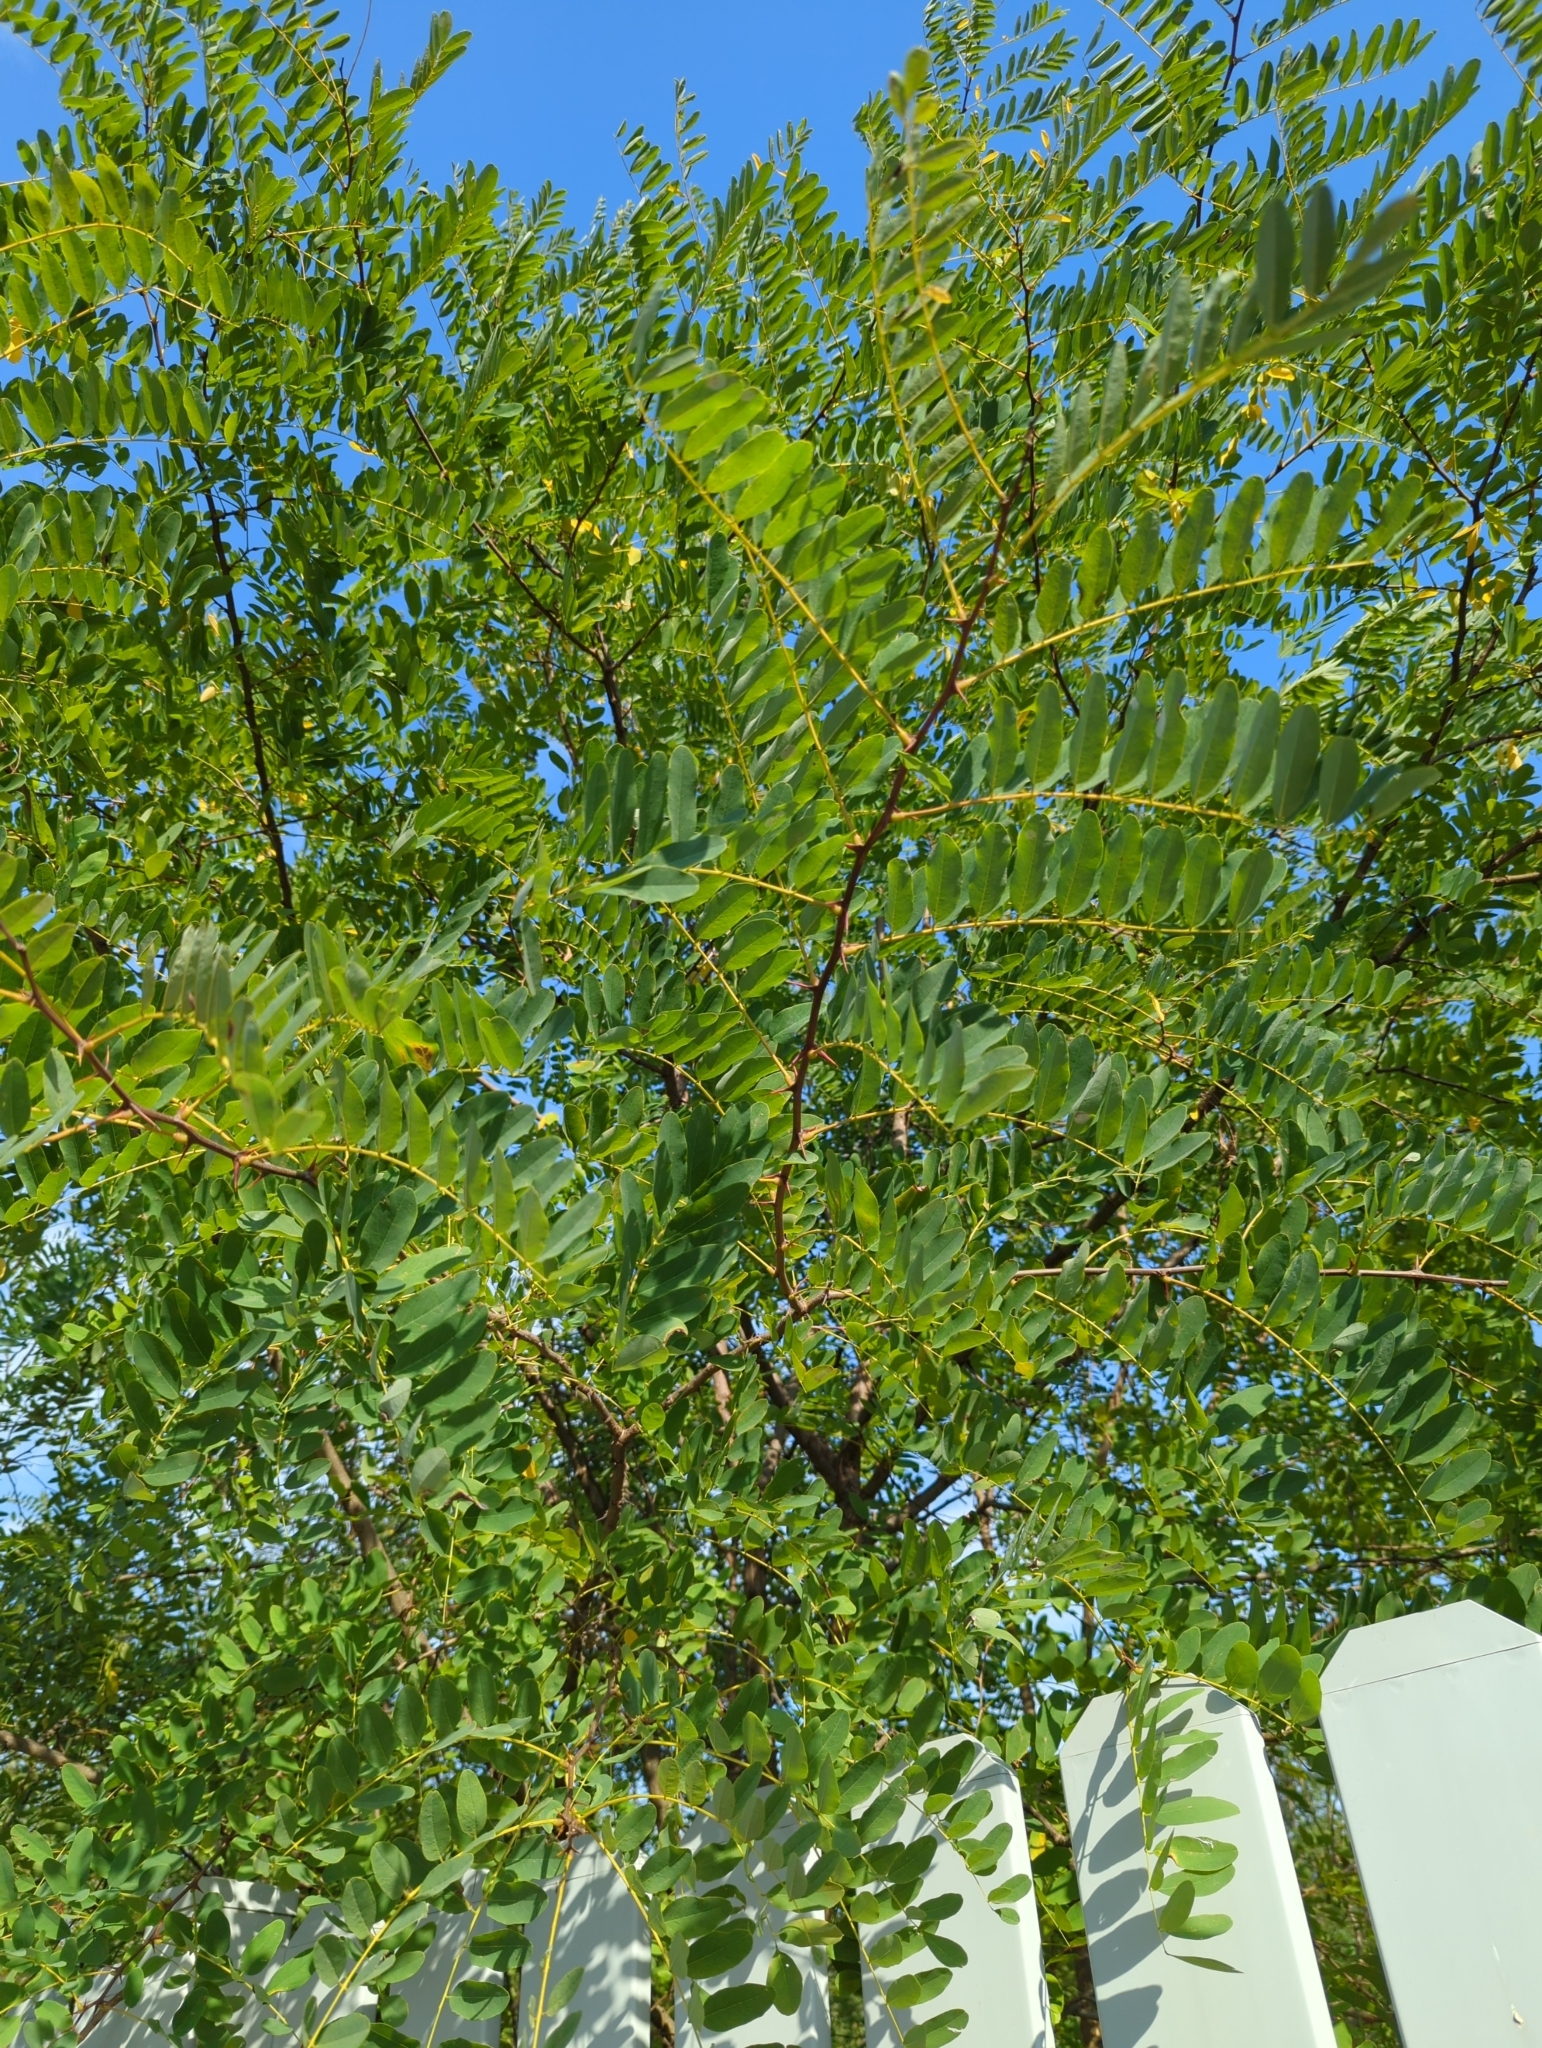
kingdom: Plantae
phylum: Tracheophyta
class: Magnoliopsida
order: Fabales
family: Fabaceae
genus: Robinia
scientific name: Robinia pseudoacacia
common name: Black locust
